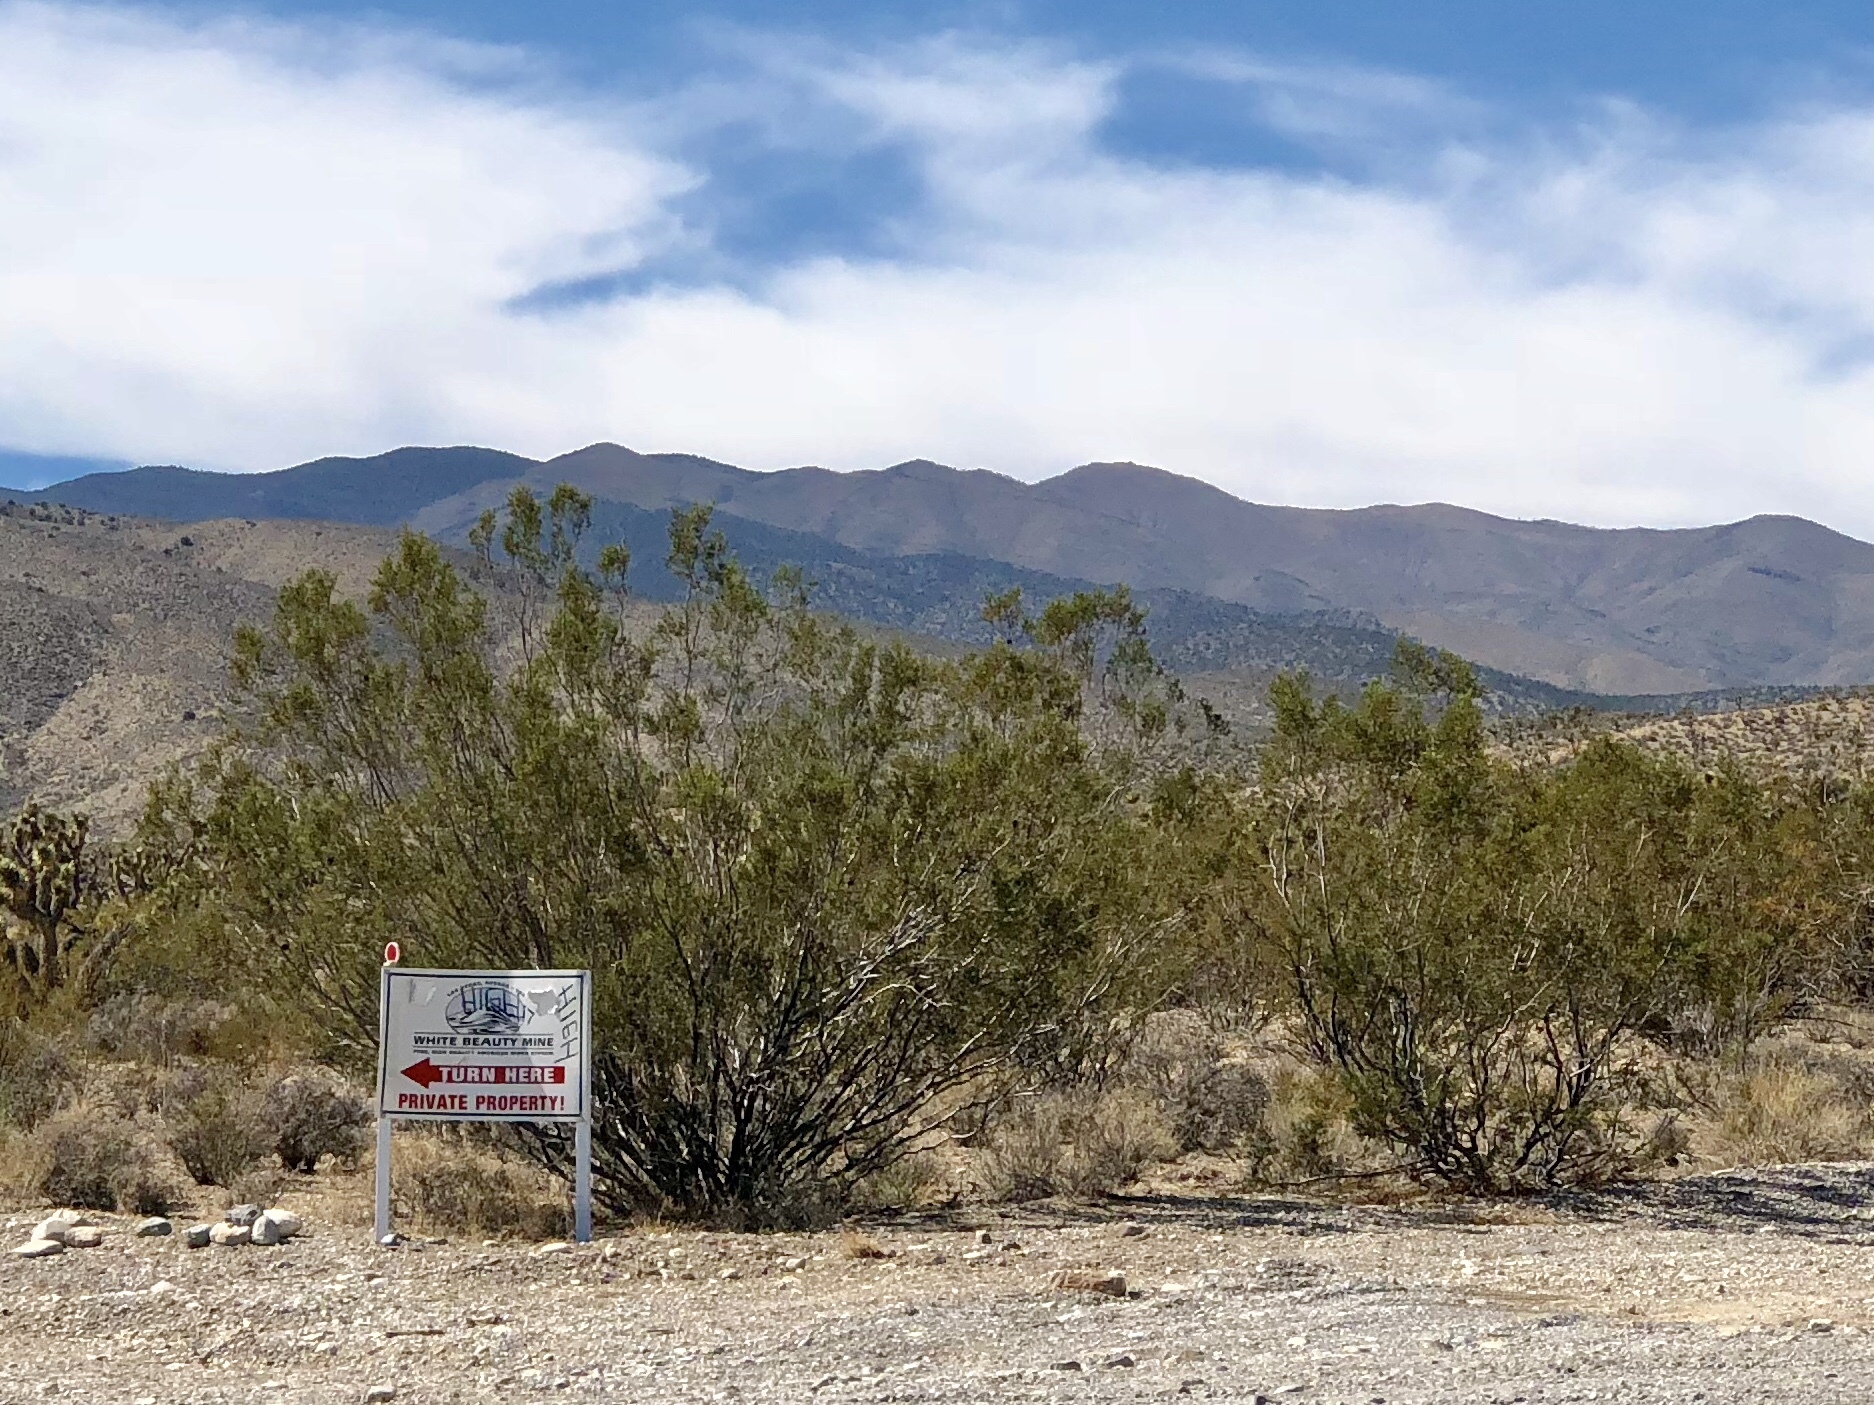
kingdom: Plantae
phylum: Tracheophyta
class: Magnoliopsida
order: Zygophyllales
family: Zygophyllaceae
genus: Larrea
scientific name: Larrea tridentata
